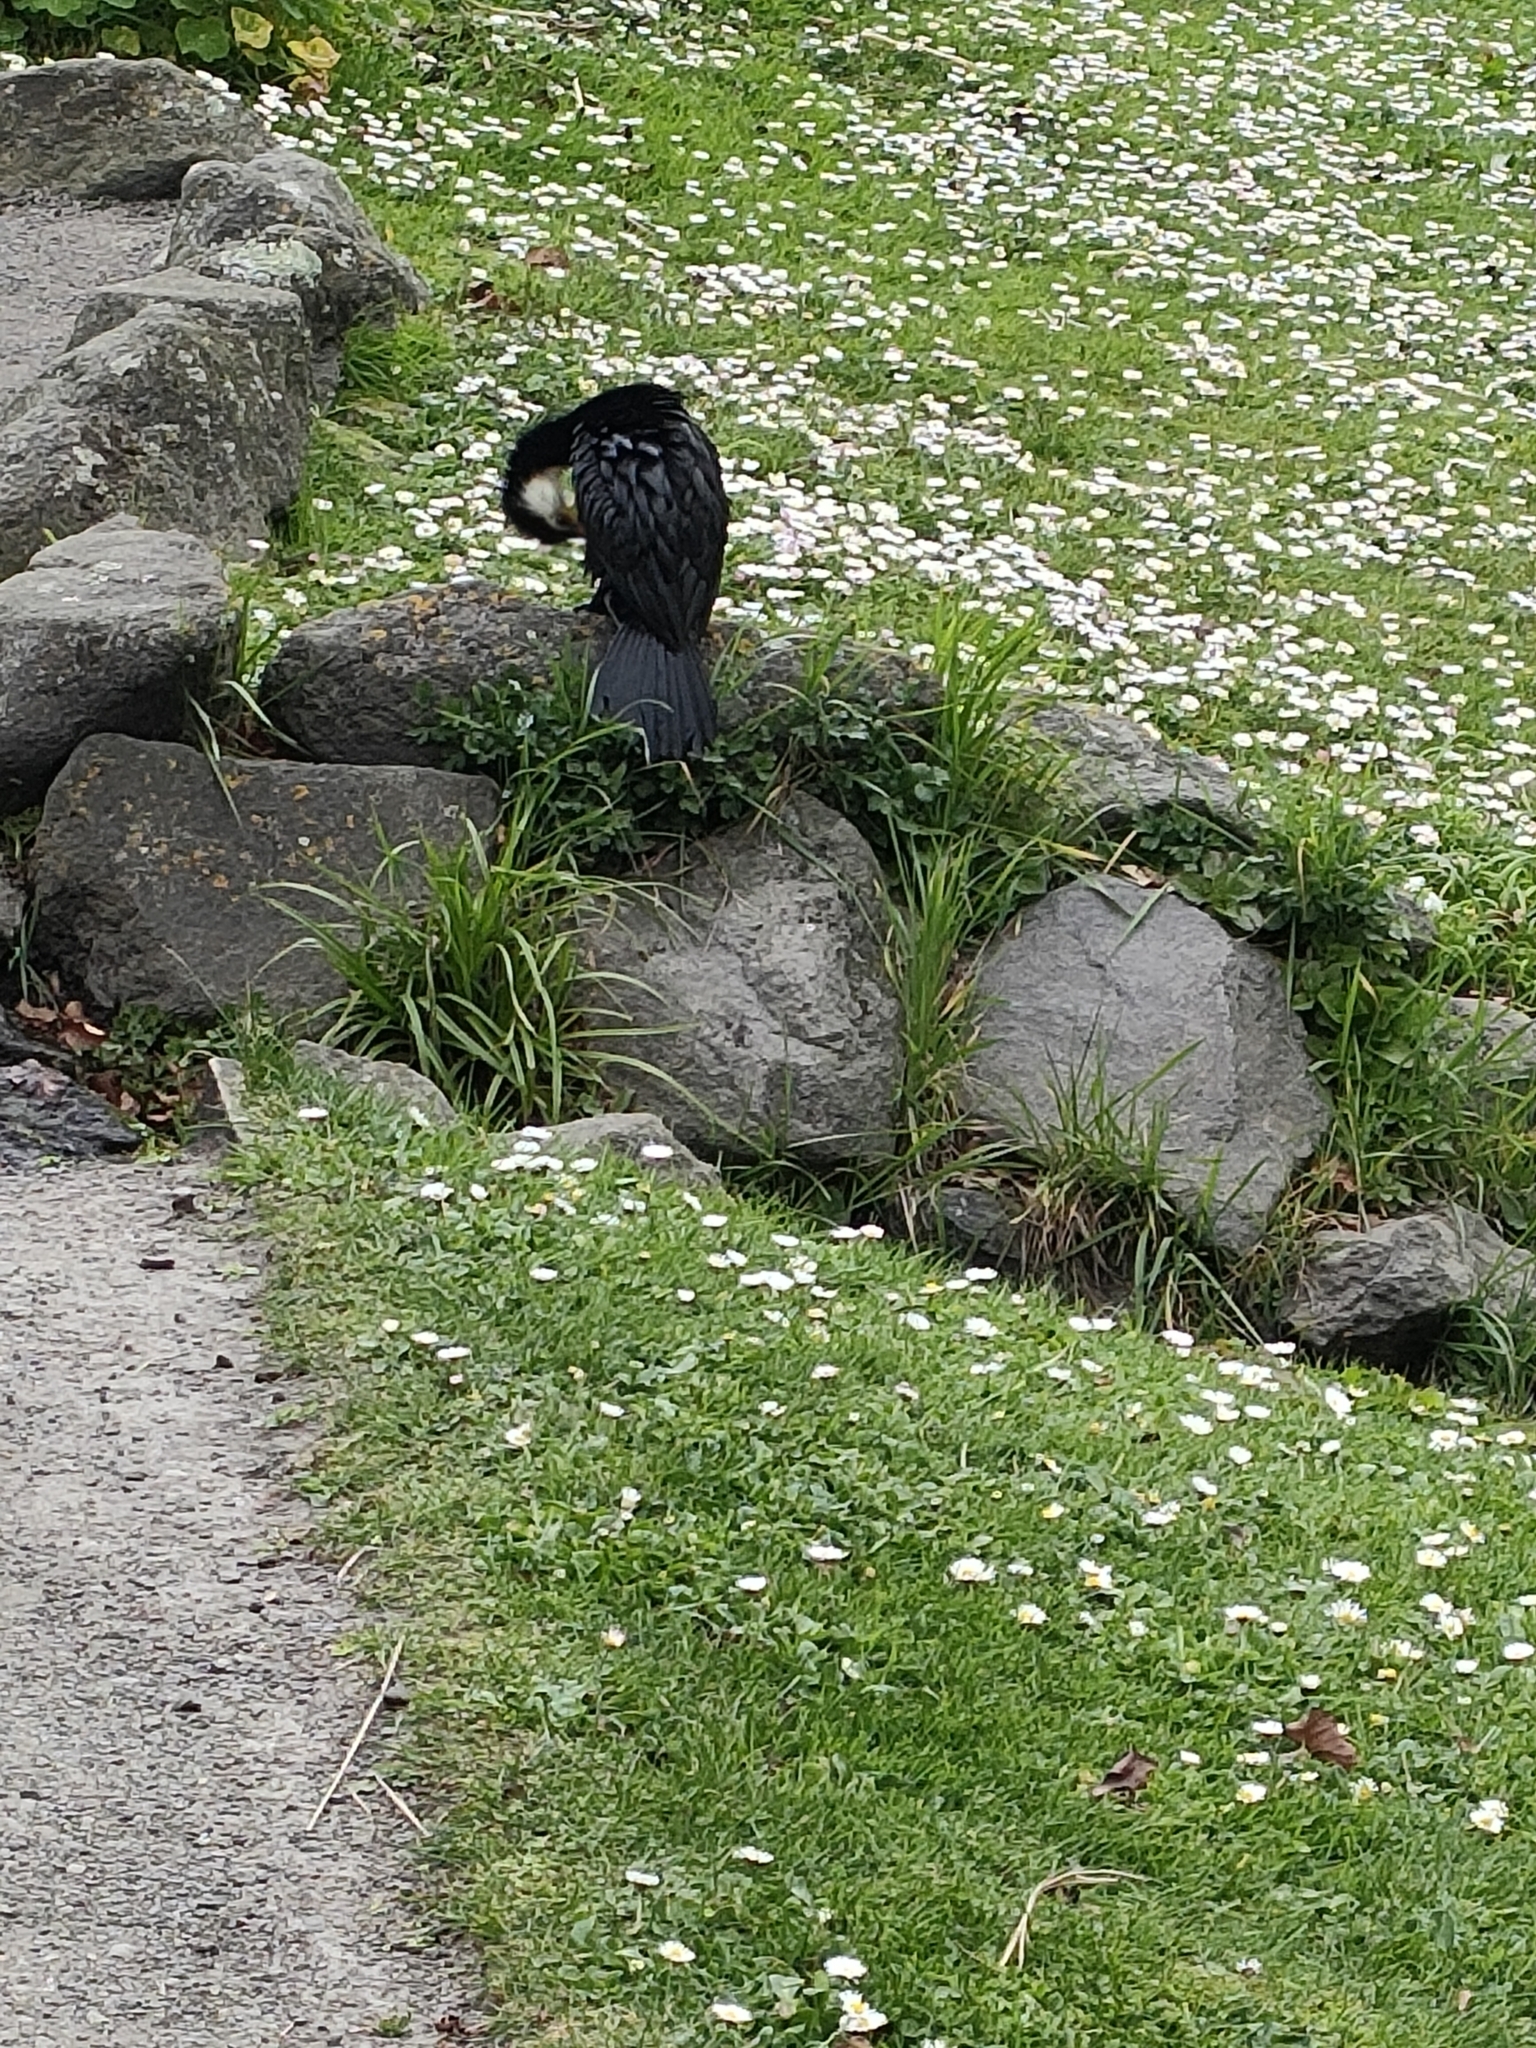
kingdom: Animalia
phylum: Chordata
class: Aves
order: Suliformes
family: Phalacrocoracidae
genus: Microcarbo
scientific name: Microcarbo melanoleucos
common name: Little pied cormorant
